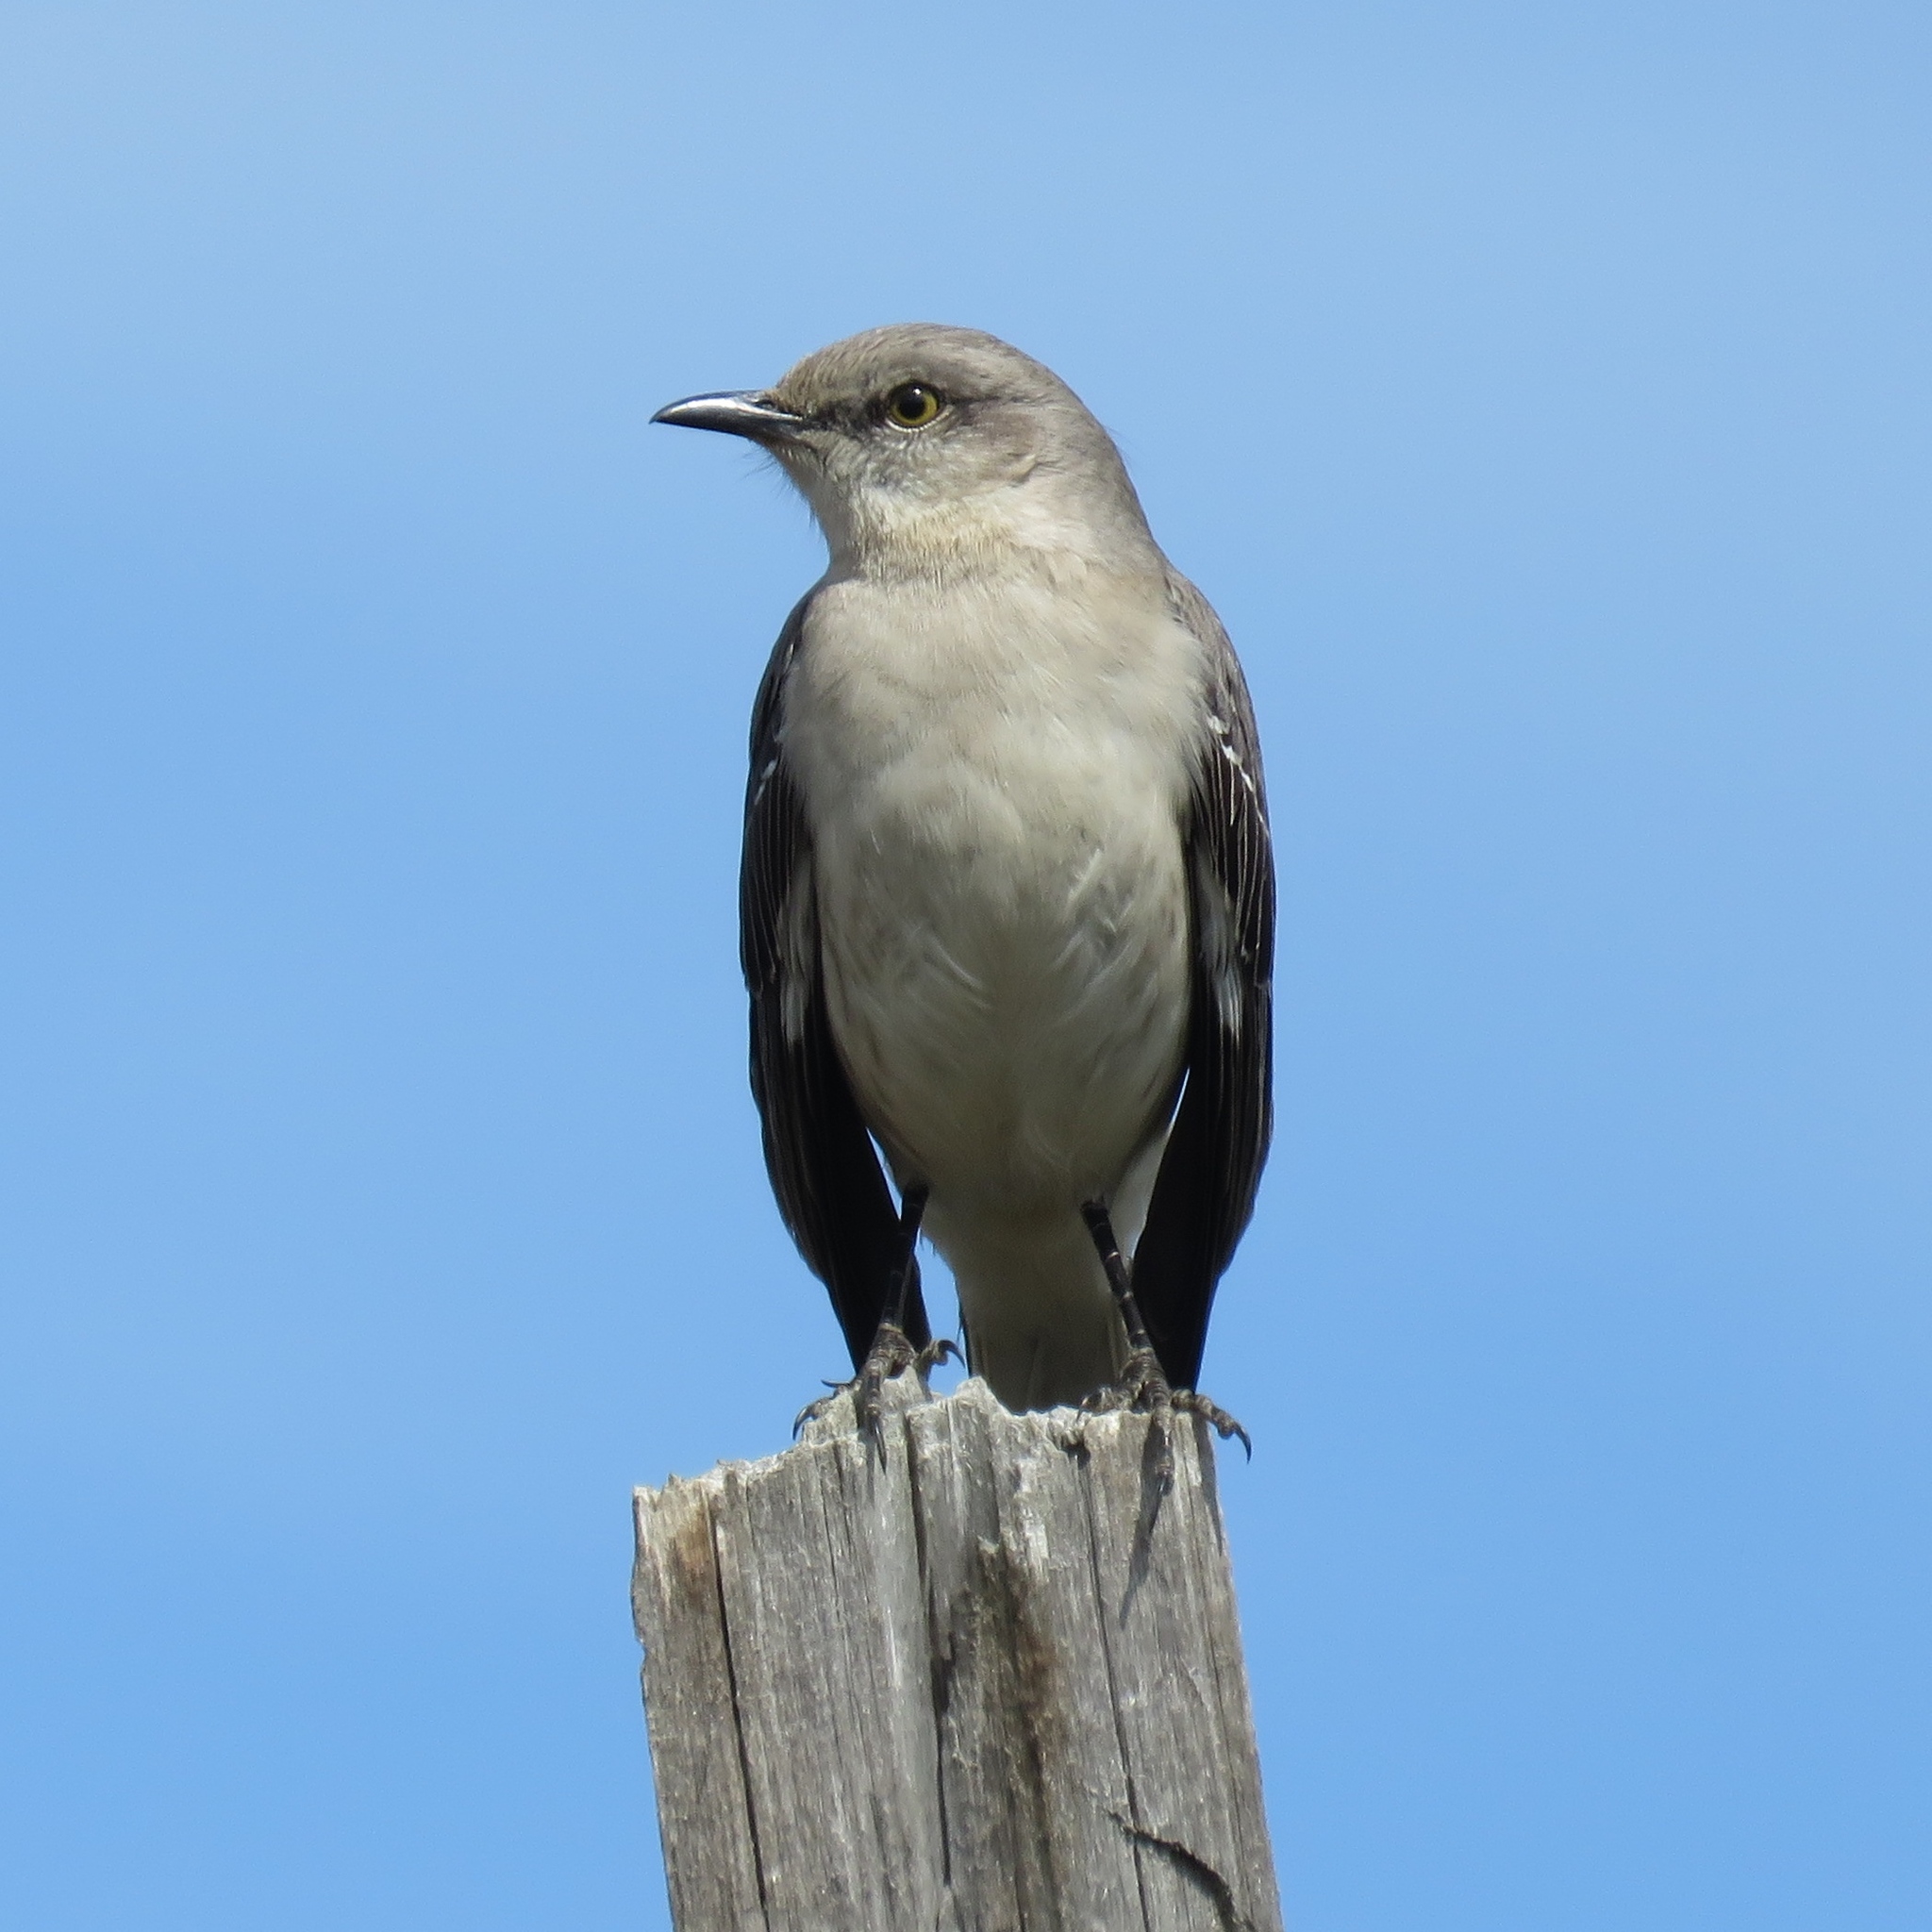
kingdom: Animalia
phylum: Chordata
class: Aves
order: Passeriformes
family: Mimidae
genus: Mimus
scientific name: Mimus polyglottos
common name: Northern mockingbird
